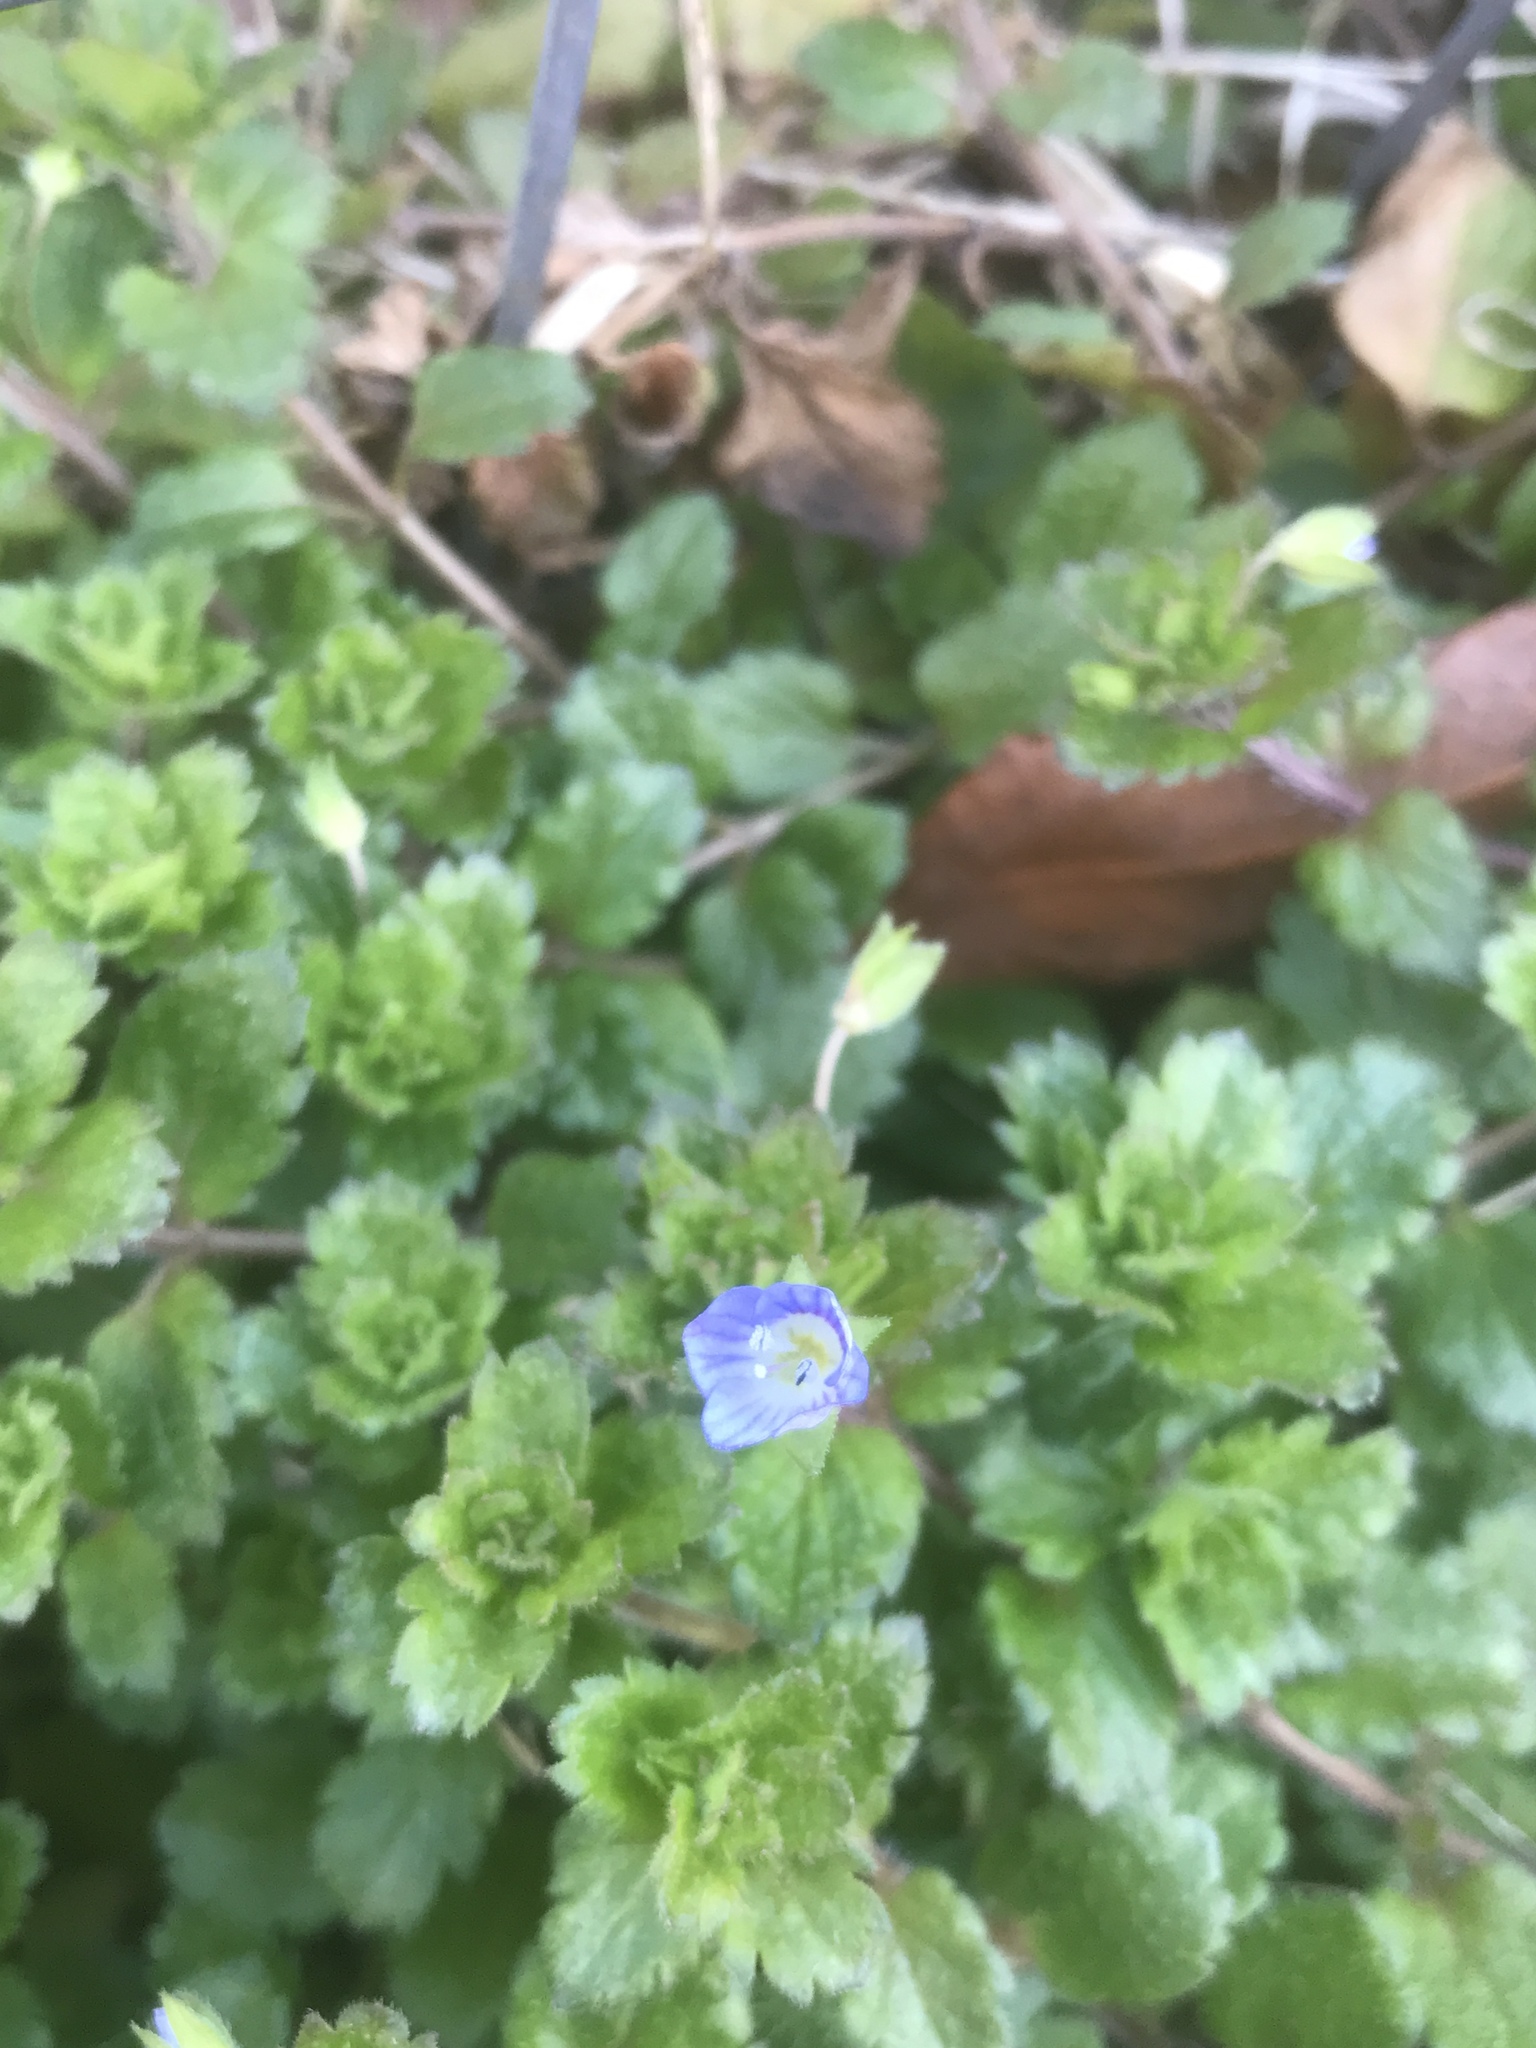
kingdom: Plantae
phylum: Tracheophyta
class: Magnoliopsida
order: Lamiales
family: Plantaginaceae
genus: Veronica
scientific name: Veronica persica
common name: Common field-speedwell
